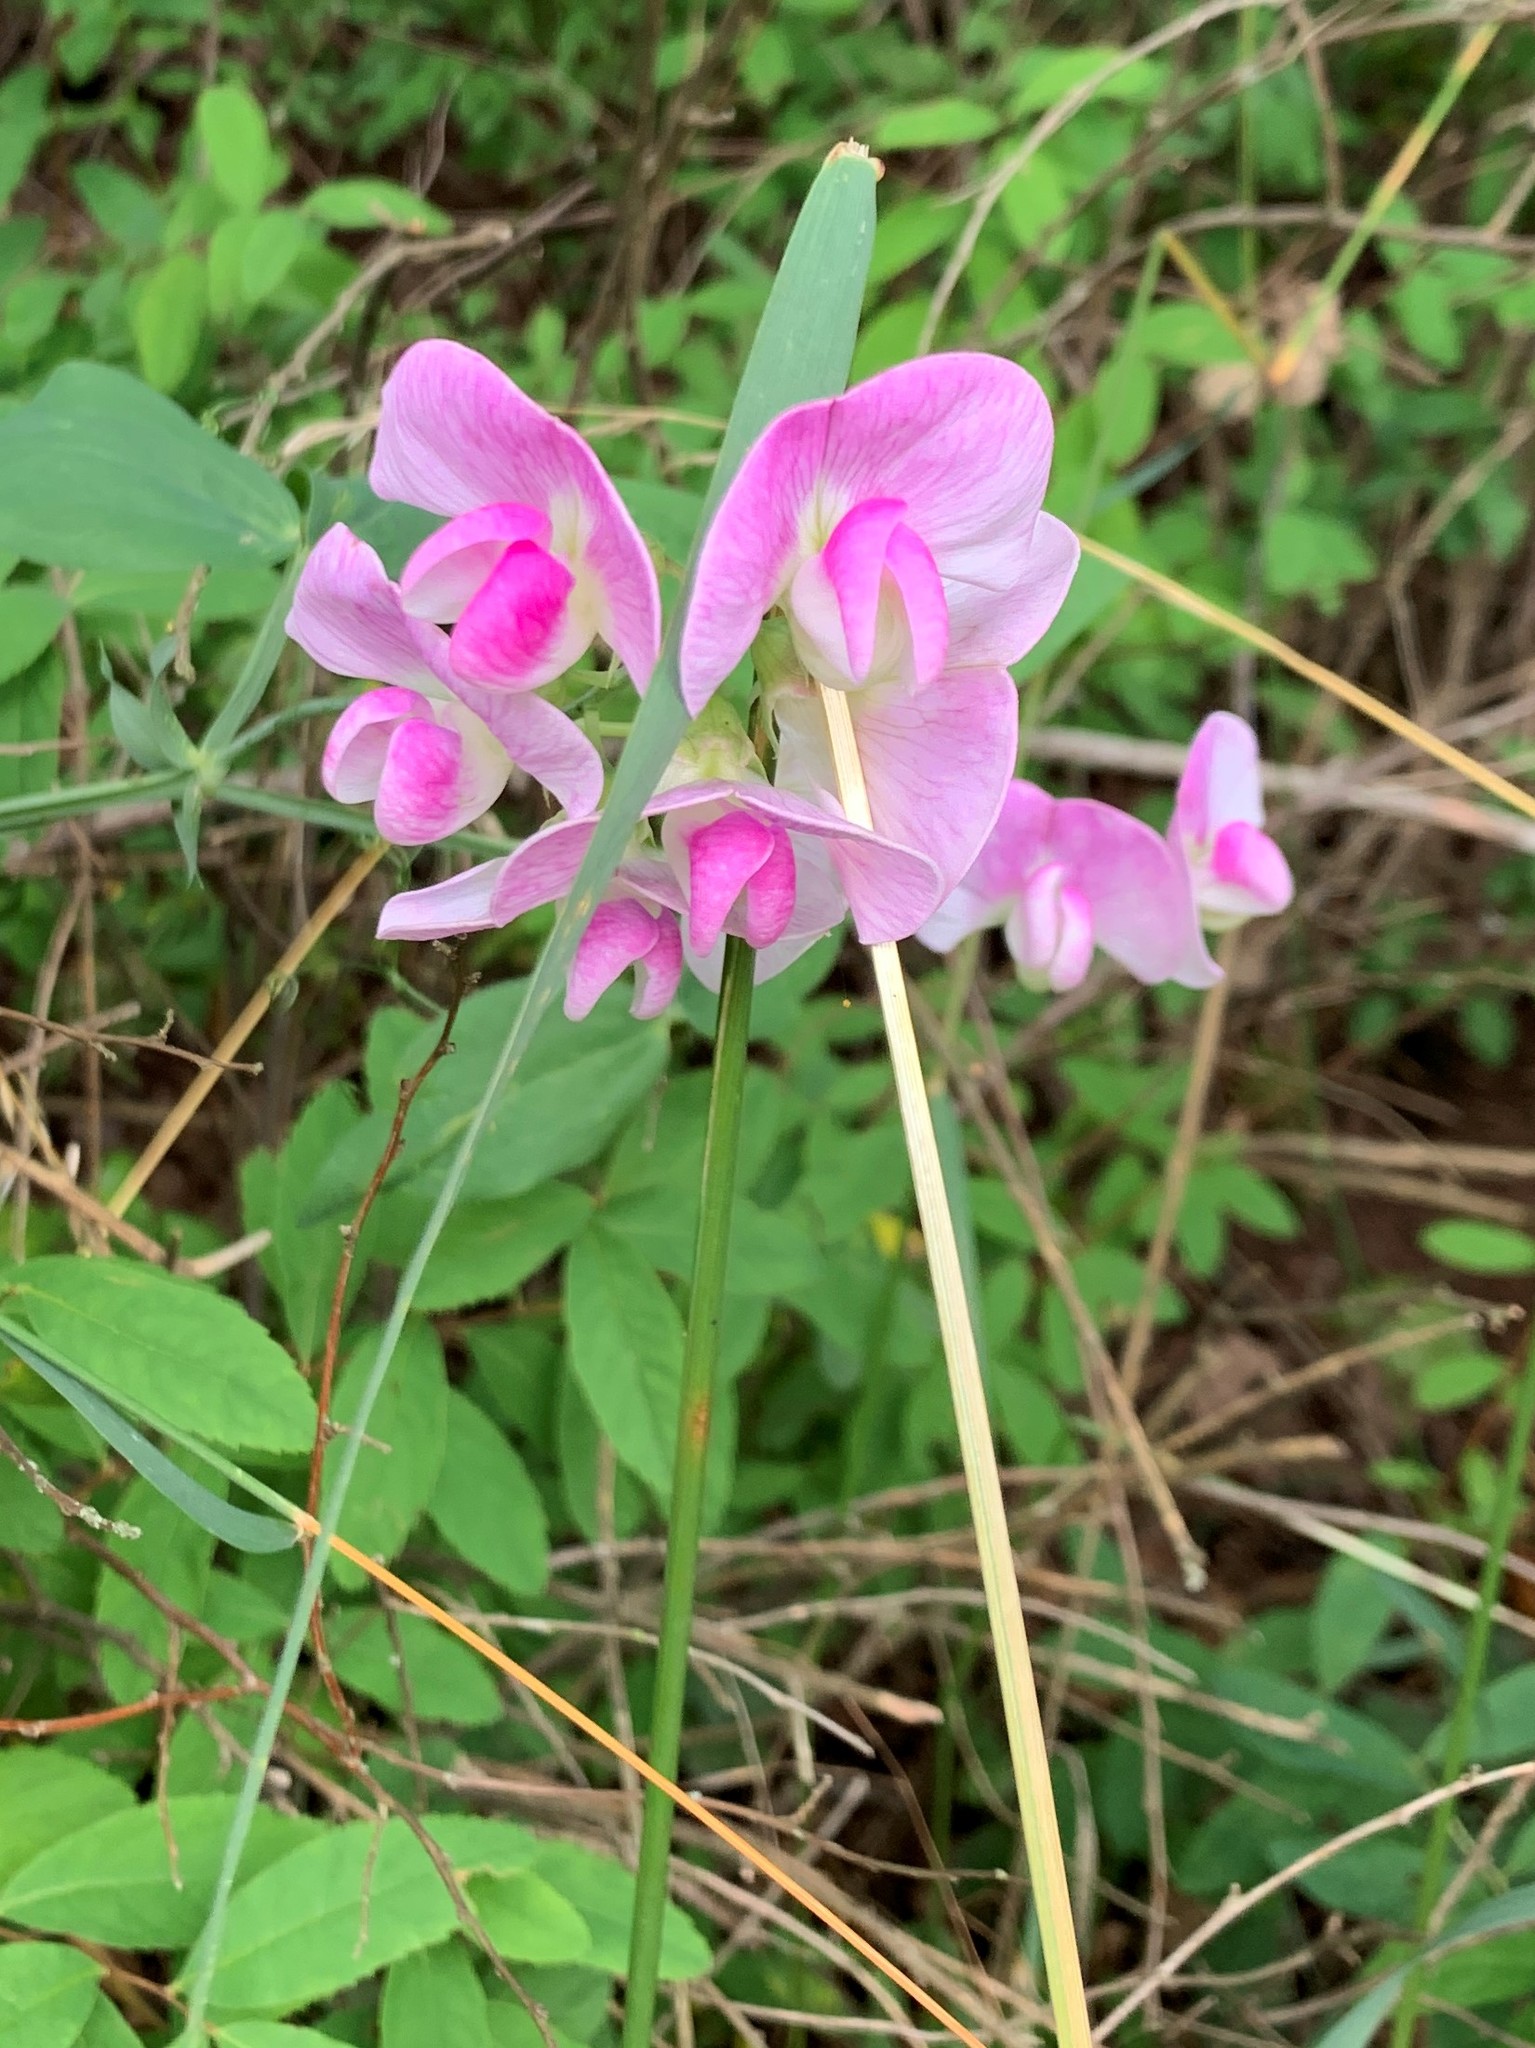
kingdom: Plantae
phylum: Tracheophyta
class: Magnoliopsida
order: Fabales
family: Fabaceae
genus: Lathyrus
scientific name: Lathyrus latifolius
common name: Perennial pea
